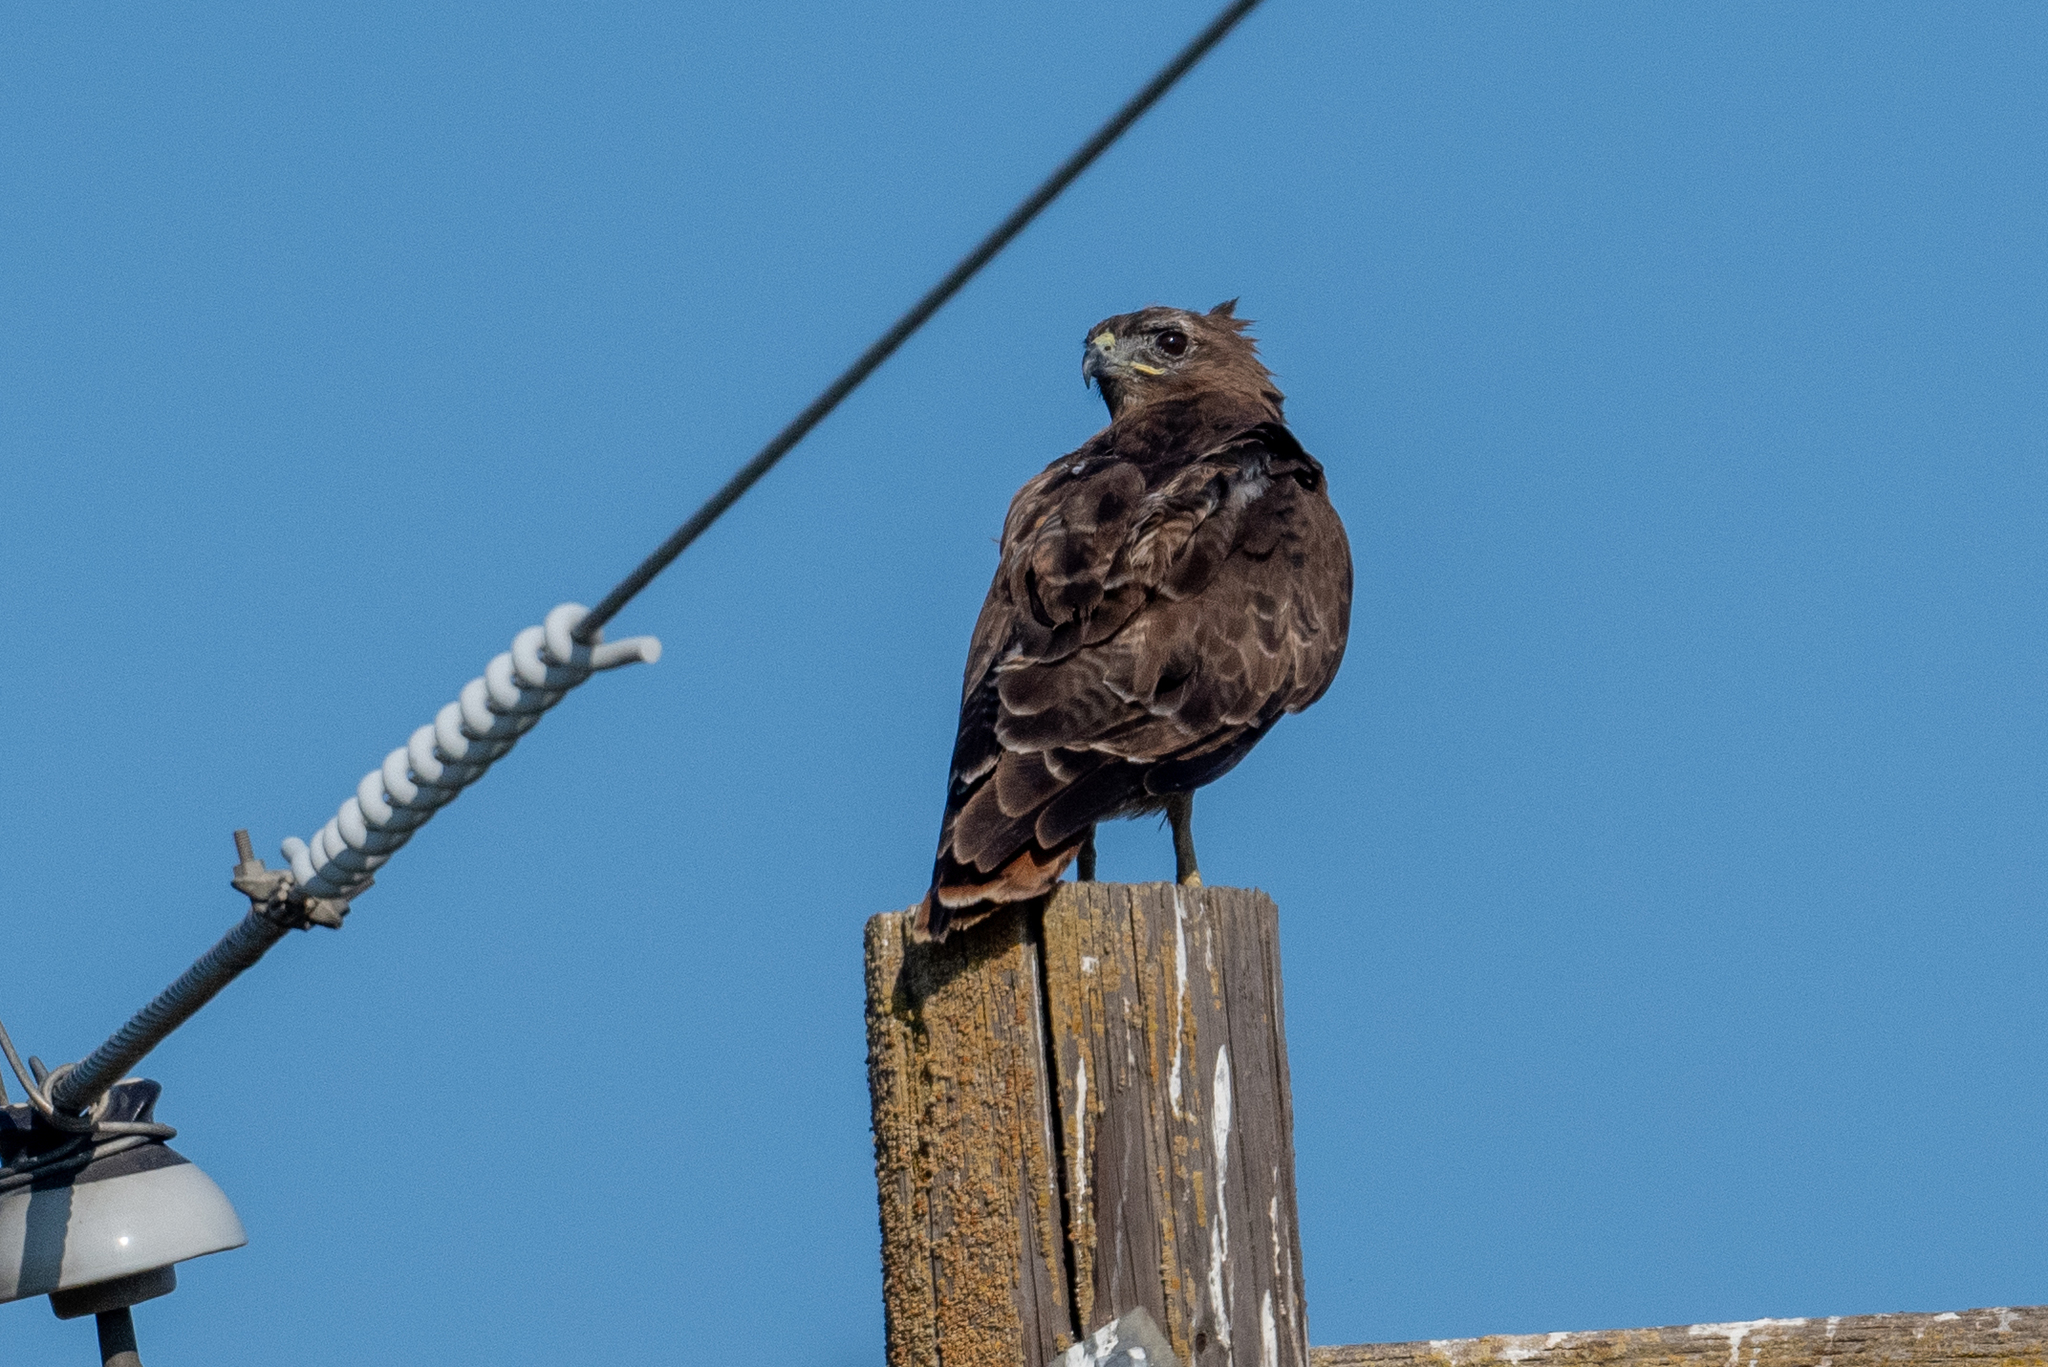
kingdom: Animalia
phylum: Chordata
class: Aves
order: Accipitriformes
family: Accipitridae
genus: Buteo
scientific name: Buteo jamaicensis
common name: Red-tailed hawk
